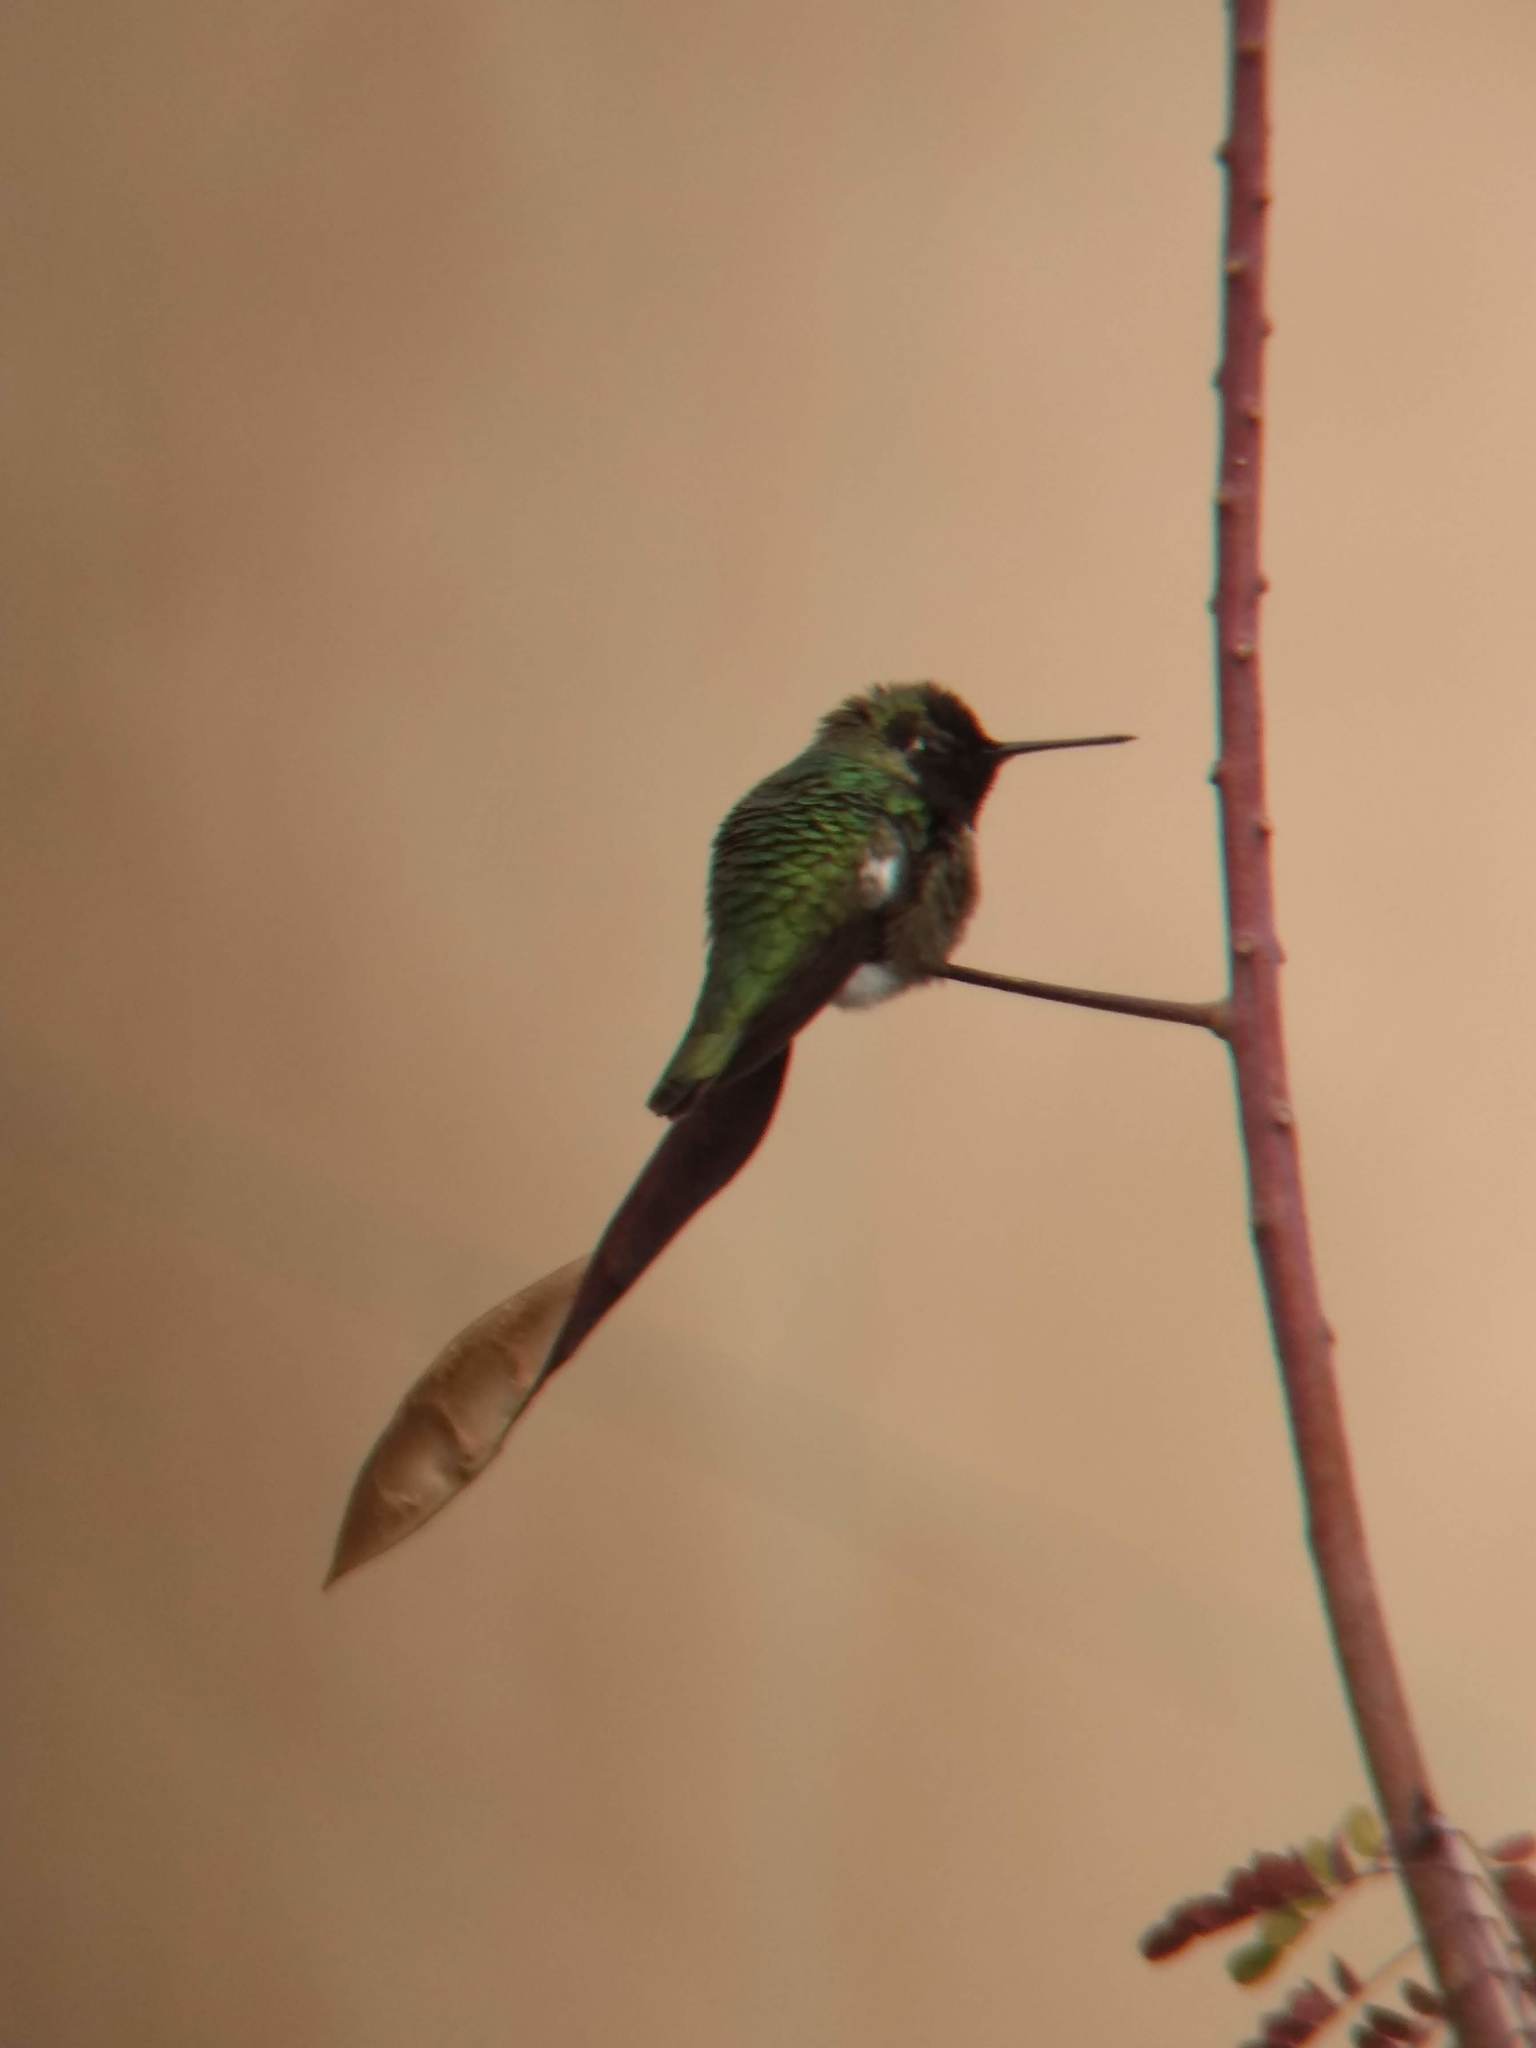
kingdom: Animalia
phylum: Chordata
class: Aves
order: Apodiformes
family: Trochilidae
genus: Calypte
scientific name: Calypte anna
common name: Anna's hummingbird
